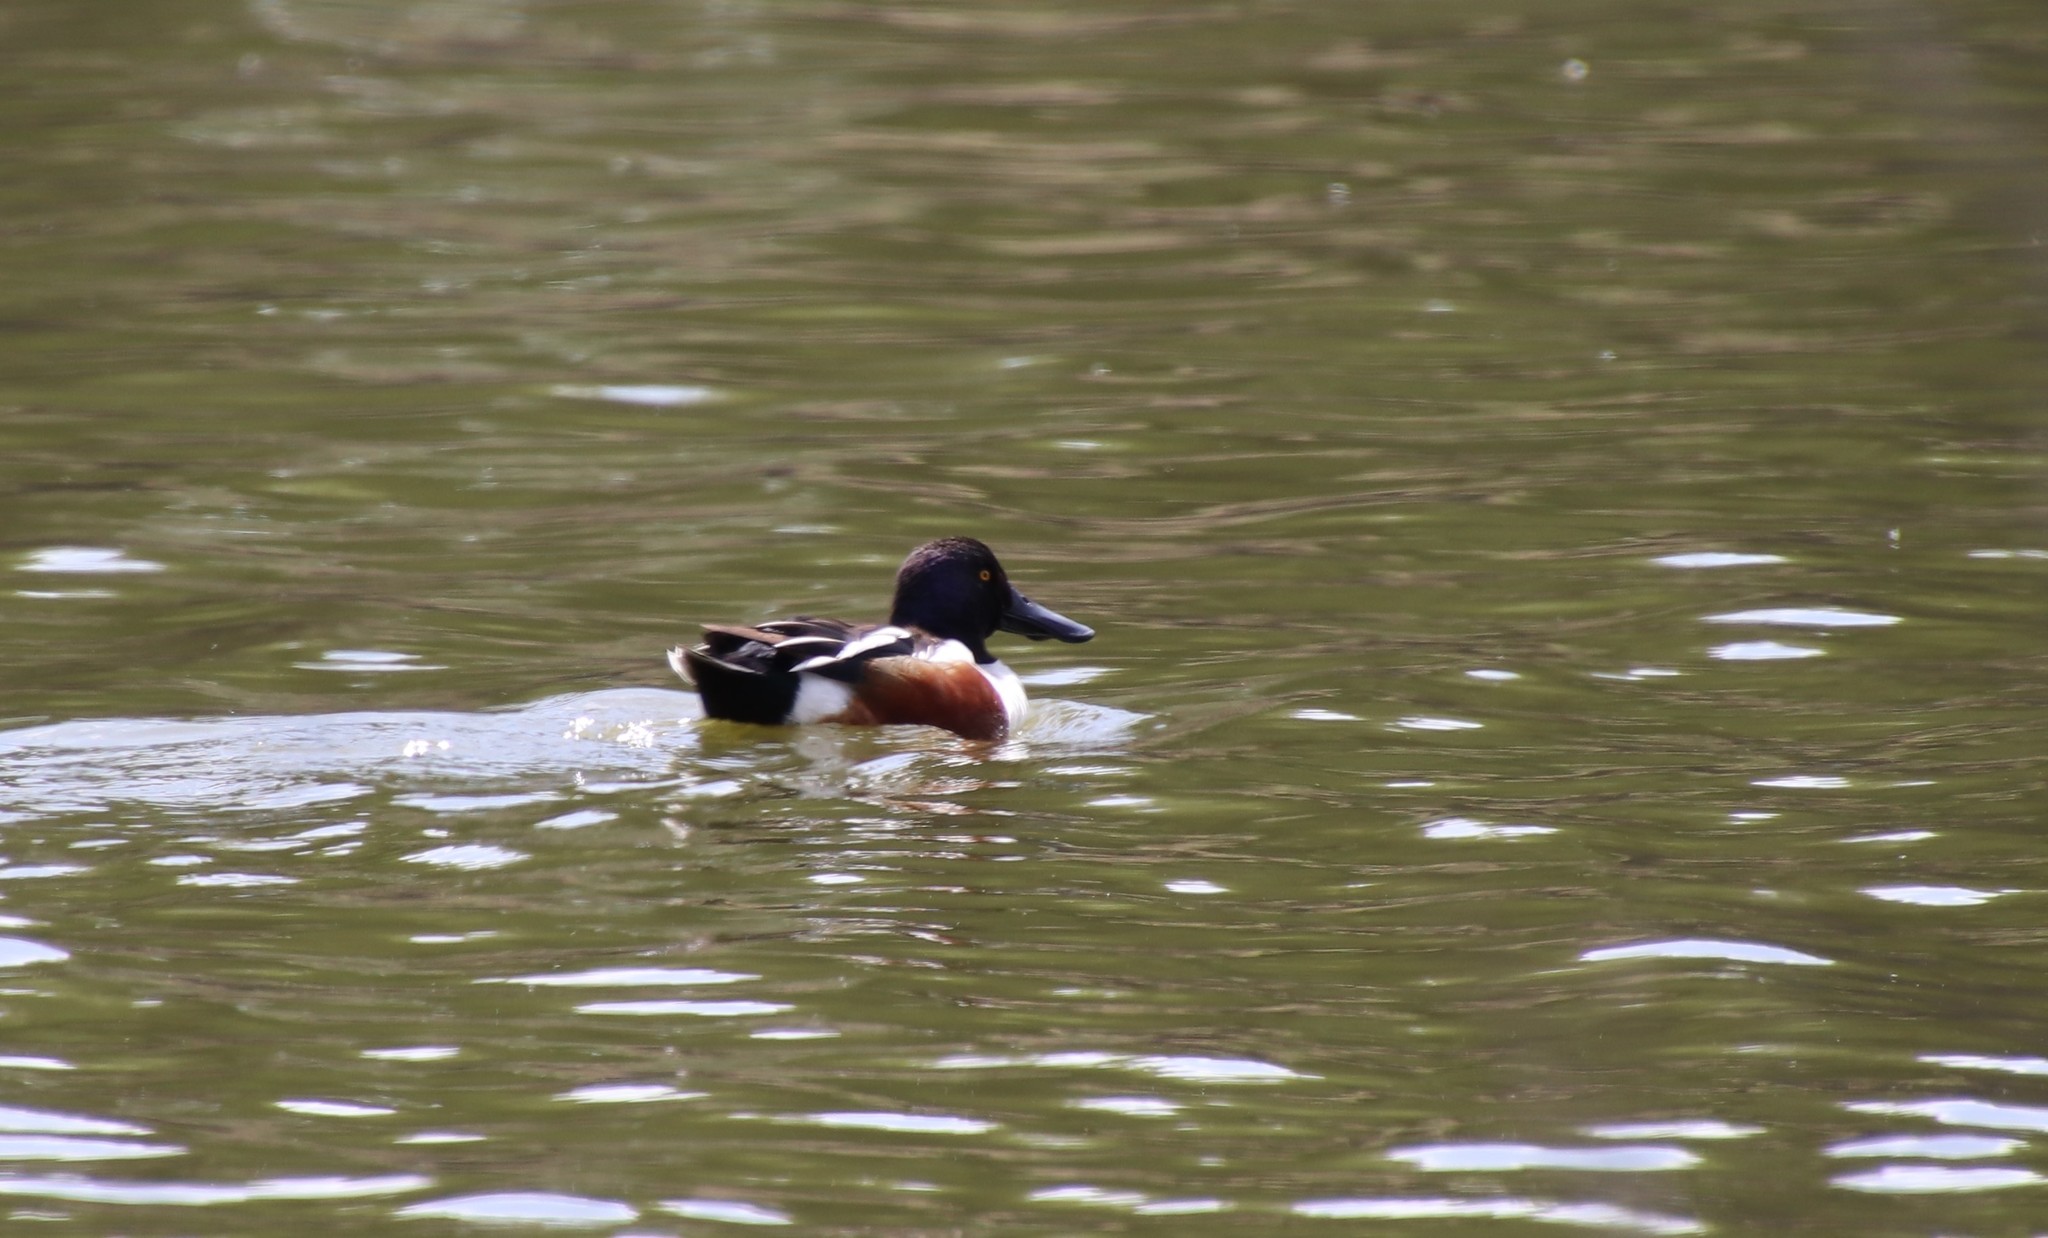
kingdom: Animalia
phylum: Chordata
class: Aves
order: Anseriformes
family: Anatidae
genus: Spatula
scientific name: Spatula clypeata
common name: Northern shoveler
